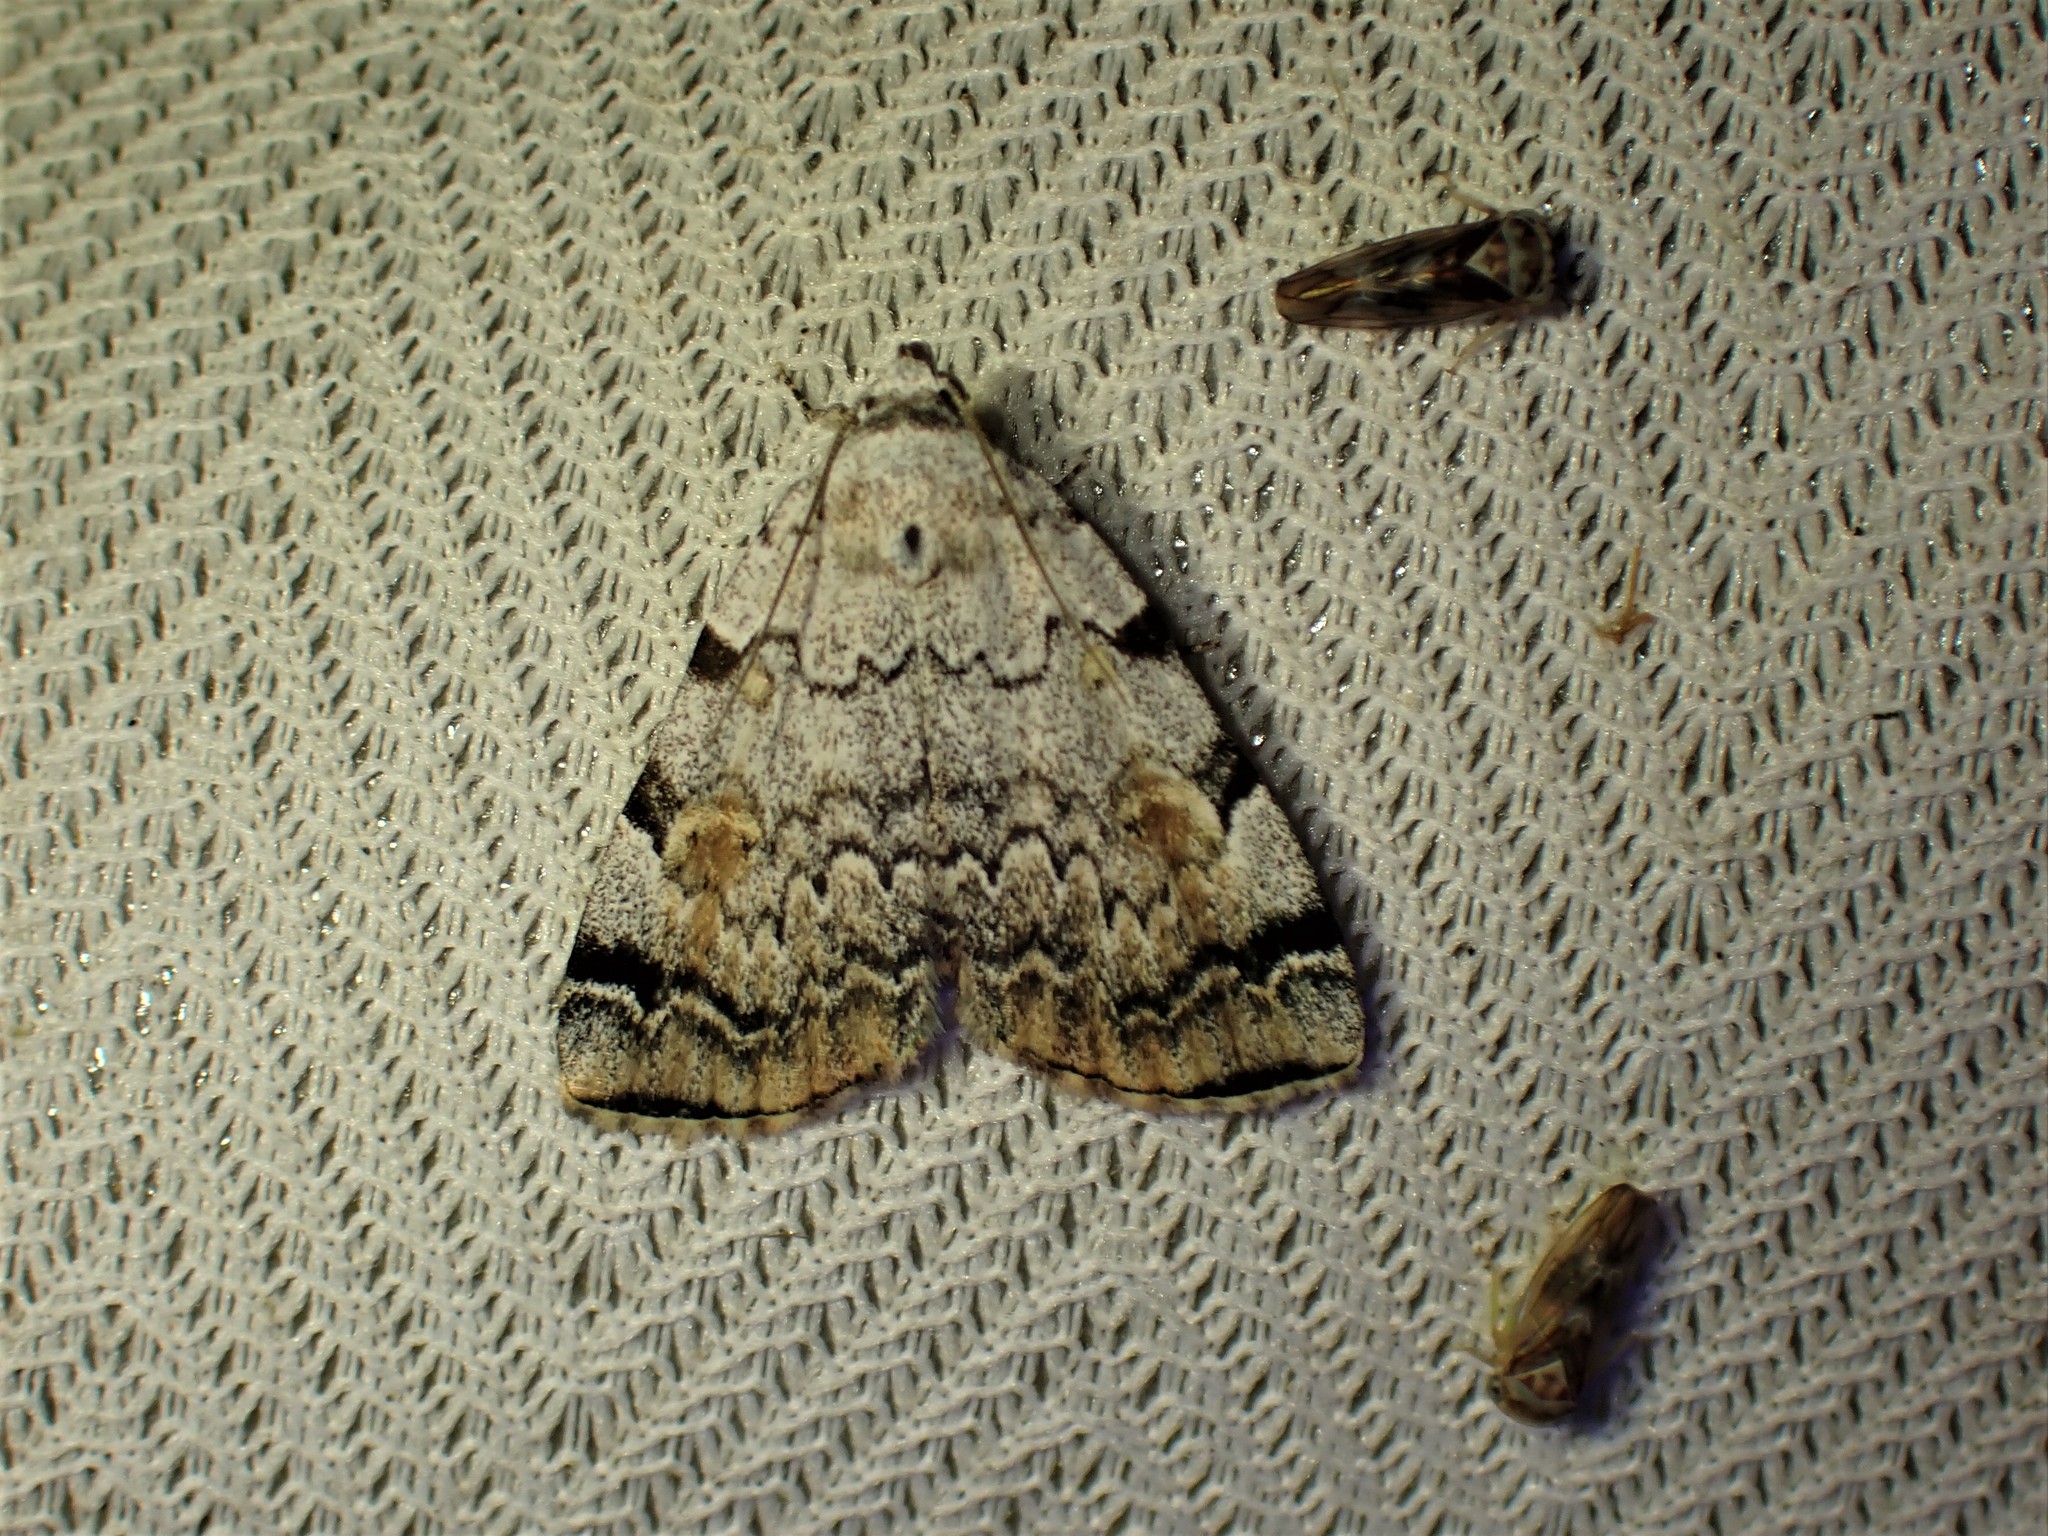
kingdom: Animalia
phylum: Arthropoda
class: Insecta
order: Lepidoptera
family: Erebidae
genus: Idia
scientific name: Idia americalis
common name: American idia moth
